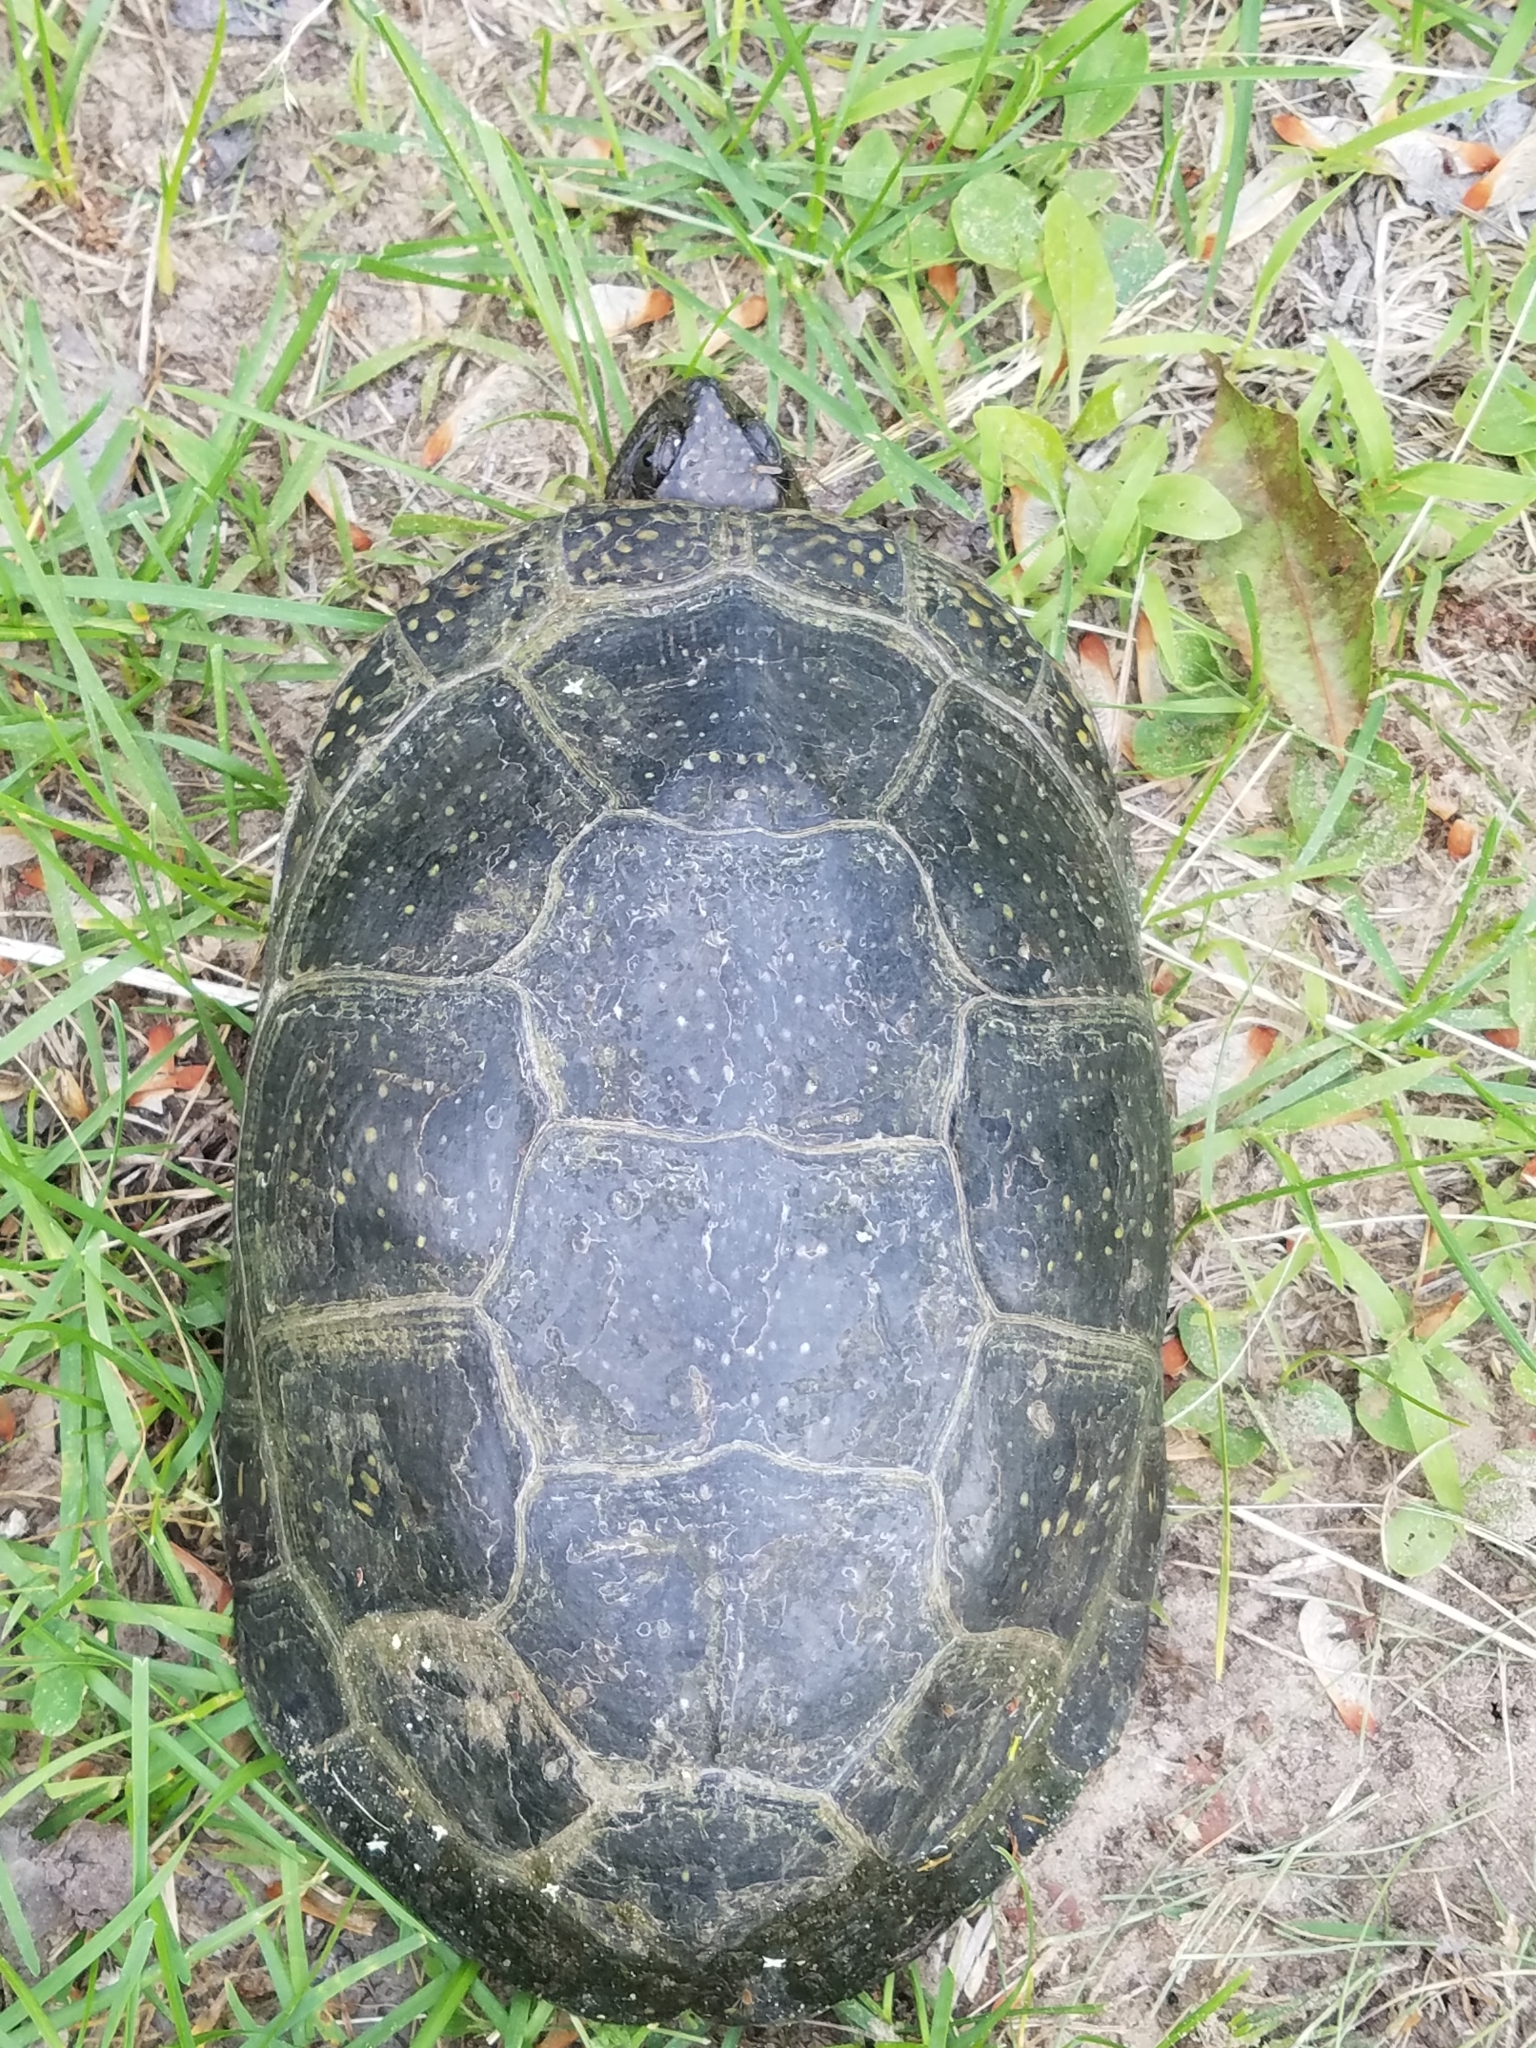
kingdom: Animalia
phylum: Chordata
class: Testudines
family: Emydidae
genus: Emys
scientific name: Emys blandingii
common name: Blanding's turtle
